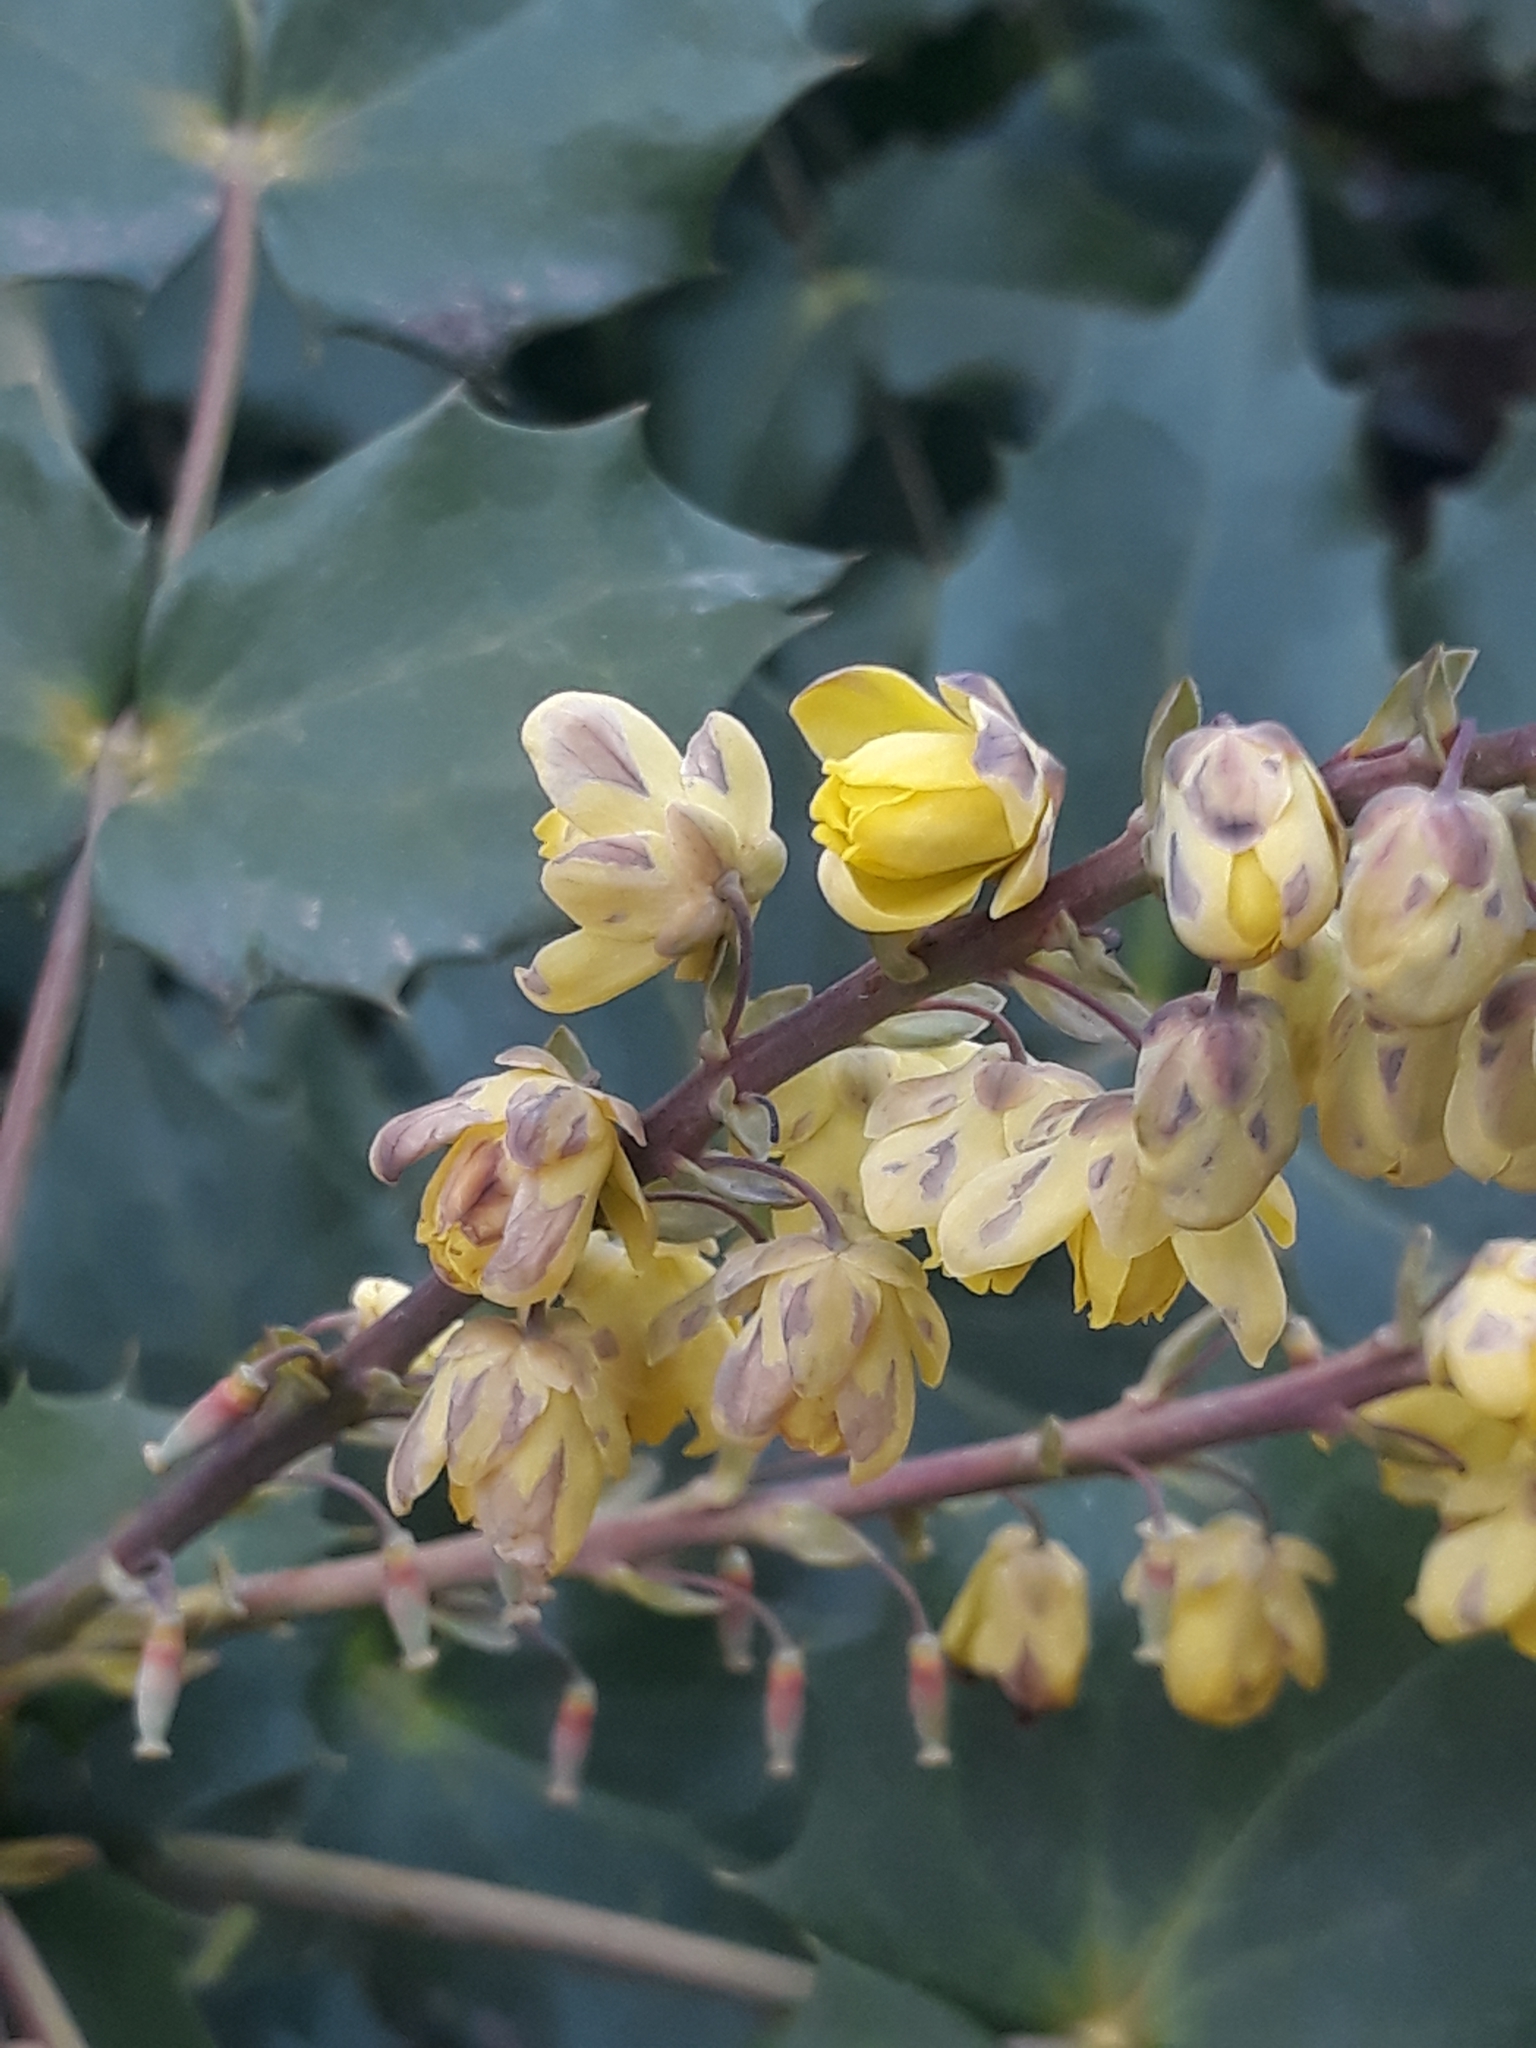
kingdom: Plantae
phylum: Tracheophyta
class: Magnoliopsida
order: Ranunculales
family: Berberidaceae
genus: Mahonia
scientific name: Mahonia aquifolium
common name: Oregon-grape
